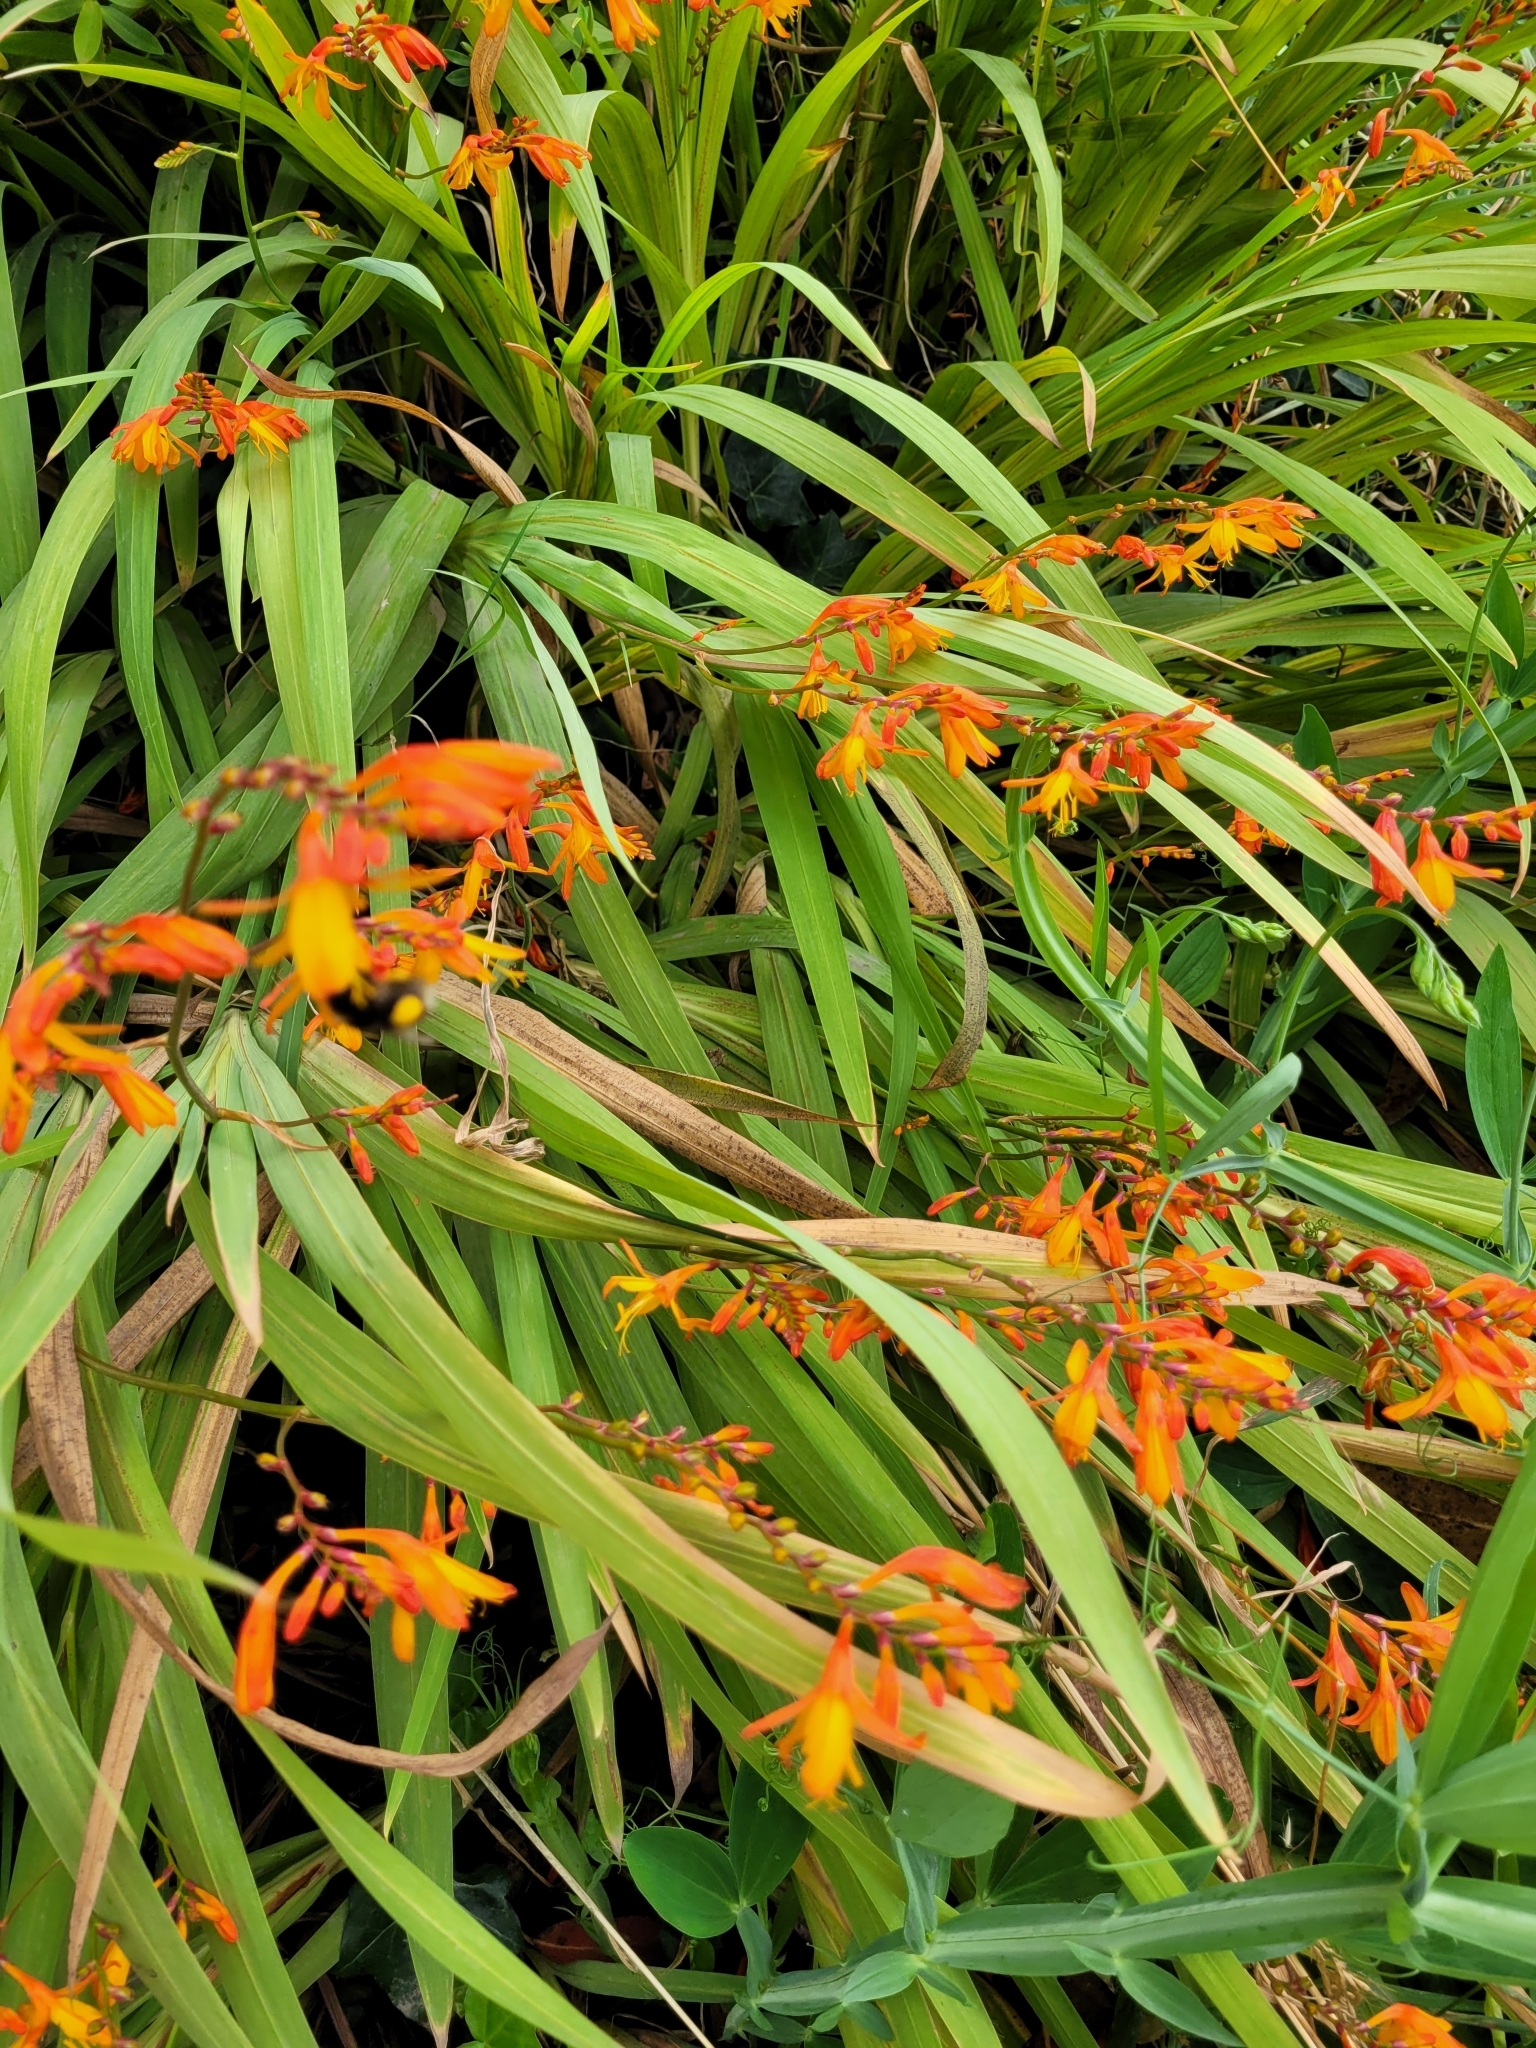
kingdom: Plantae
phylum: Tracheophyta
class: Liliopsida
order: Asparagales
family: Iridaceae
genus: Crocosmia
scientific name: Crocosmia crocosmiiflora
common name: Montbretia
